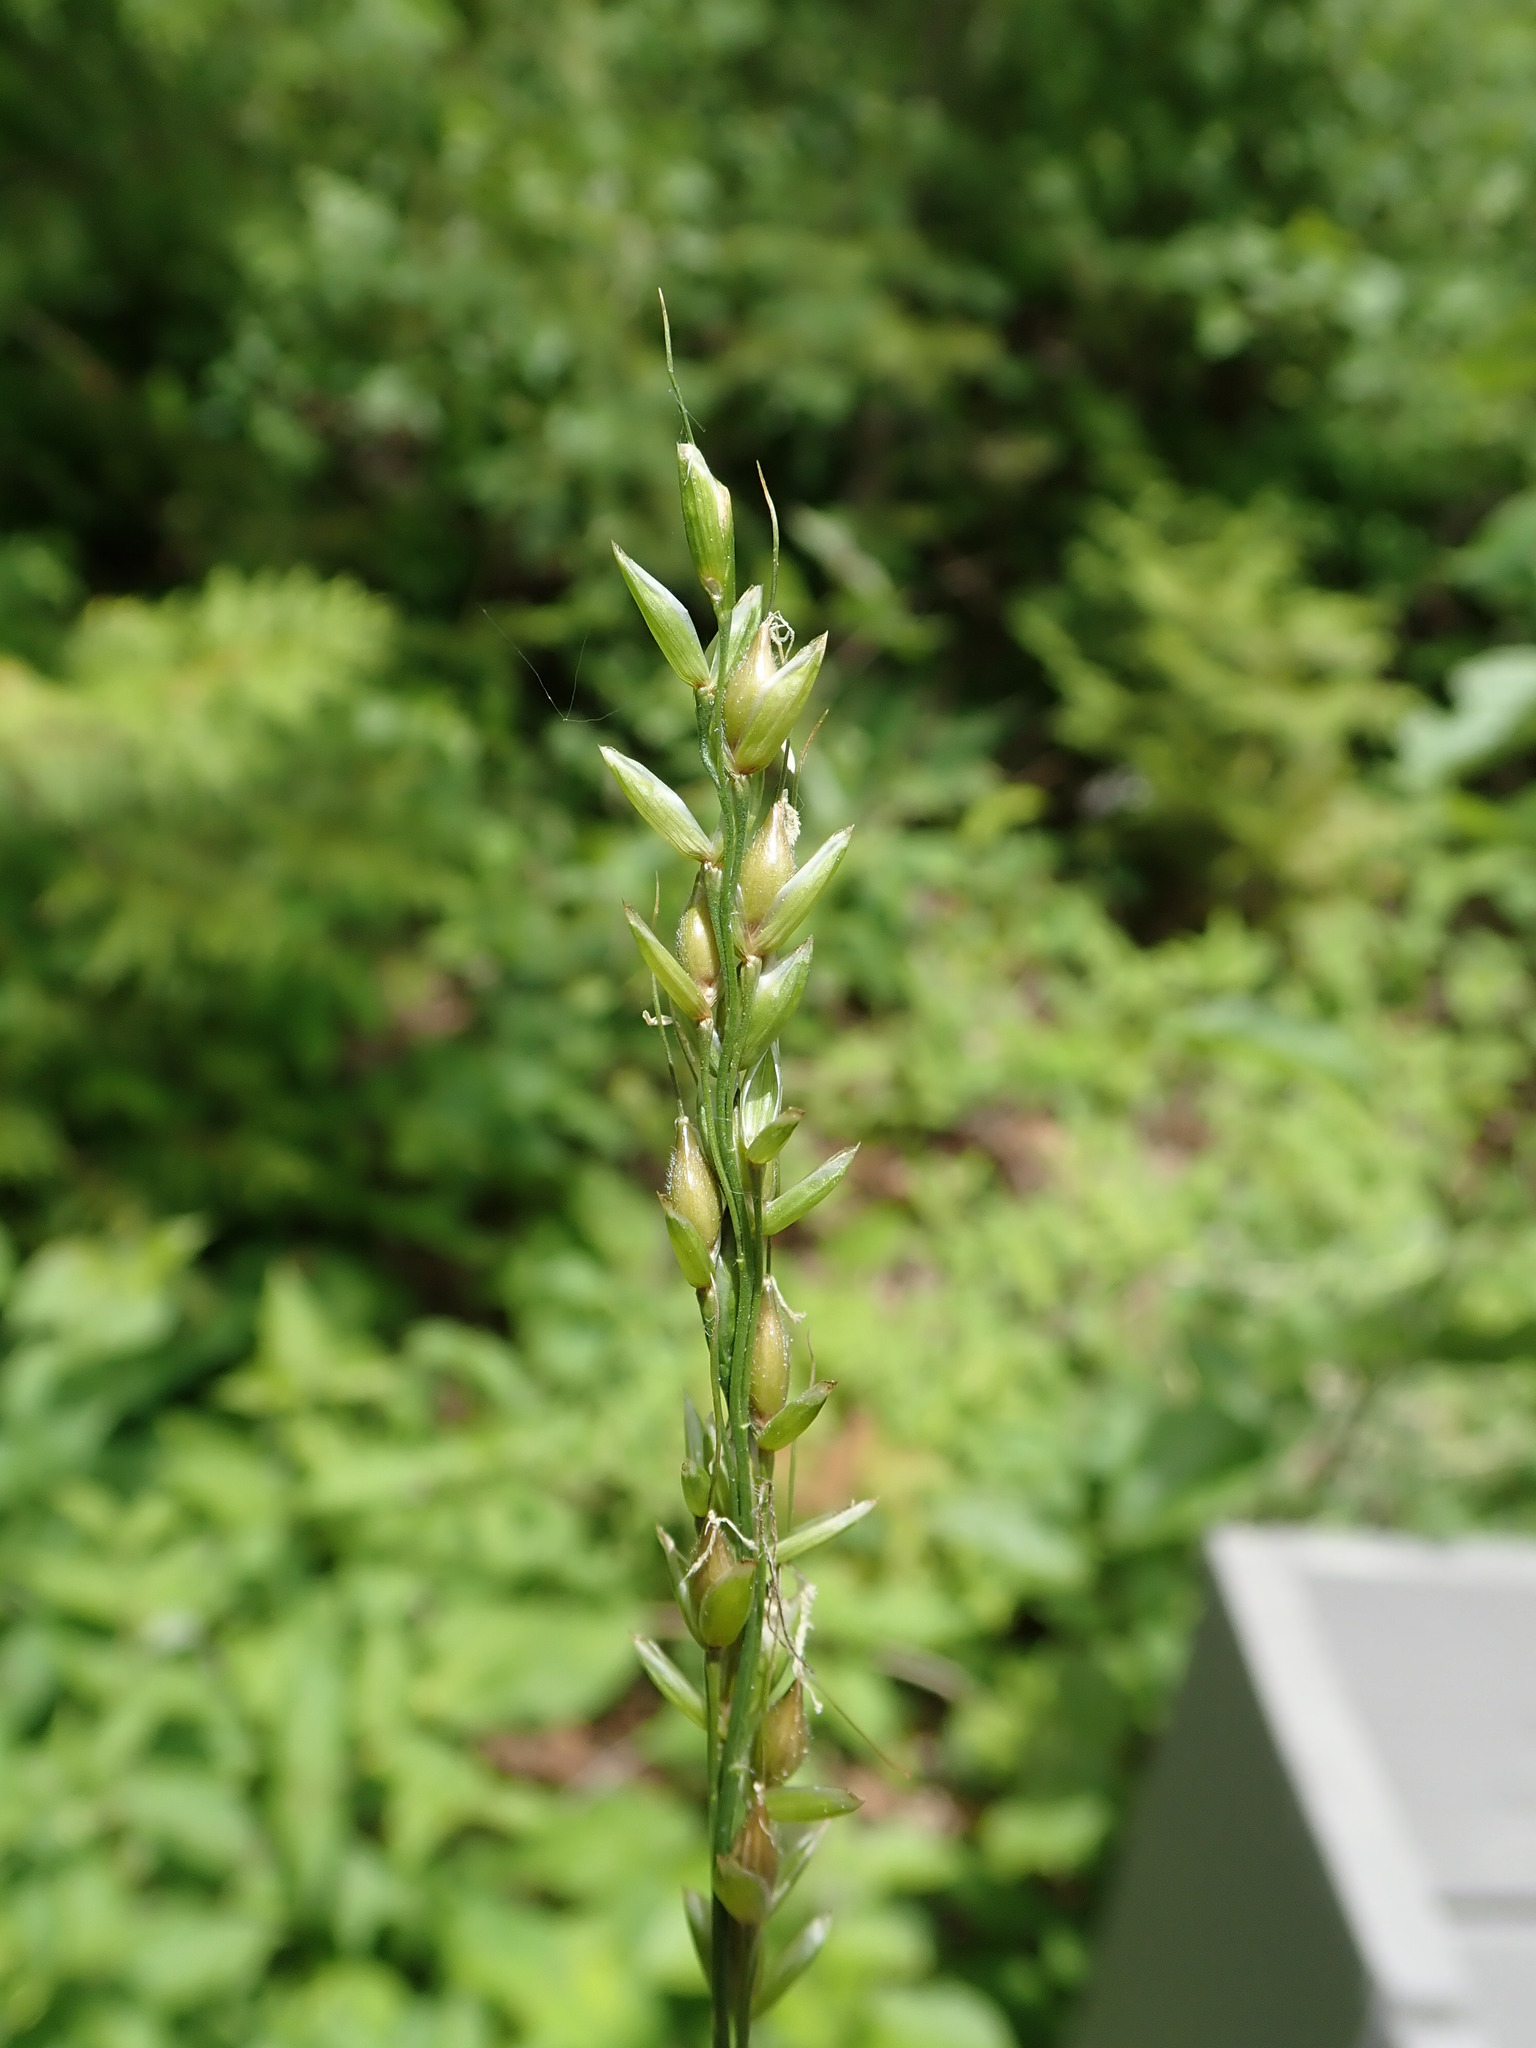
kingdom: Plantae
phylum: Tracheophyta
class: Liliopsida
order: Poales
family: Poaceae
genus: Oryzopsis
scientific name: Oryzopsis asperifolia
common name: Rough-leaved mountain rice
